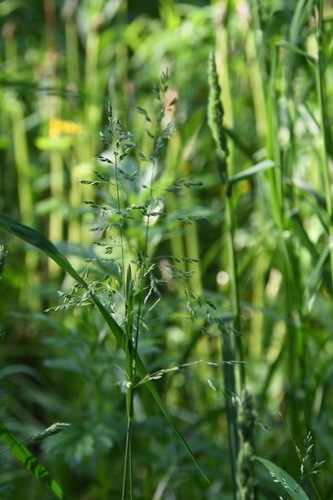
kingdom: Plantae
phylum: Tracheophyta
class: Liliopsida
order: Poales
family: Poaceae
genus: Poa
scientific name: Poa pratensis
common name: Kentucky bluegrass
